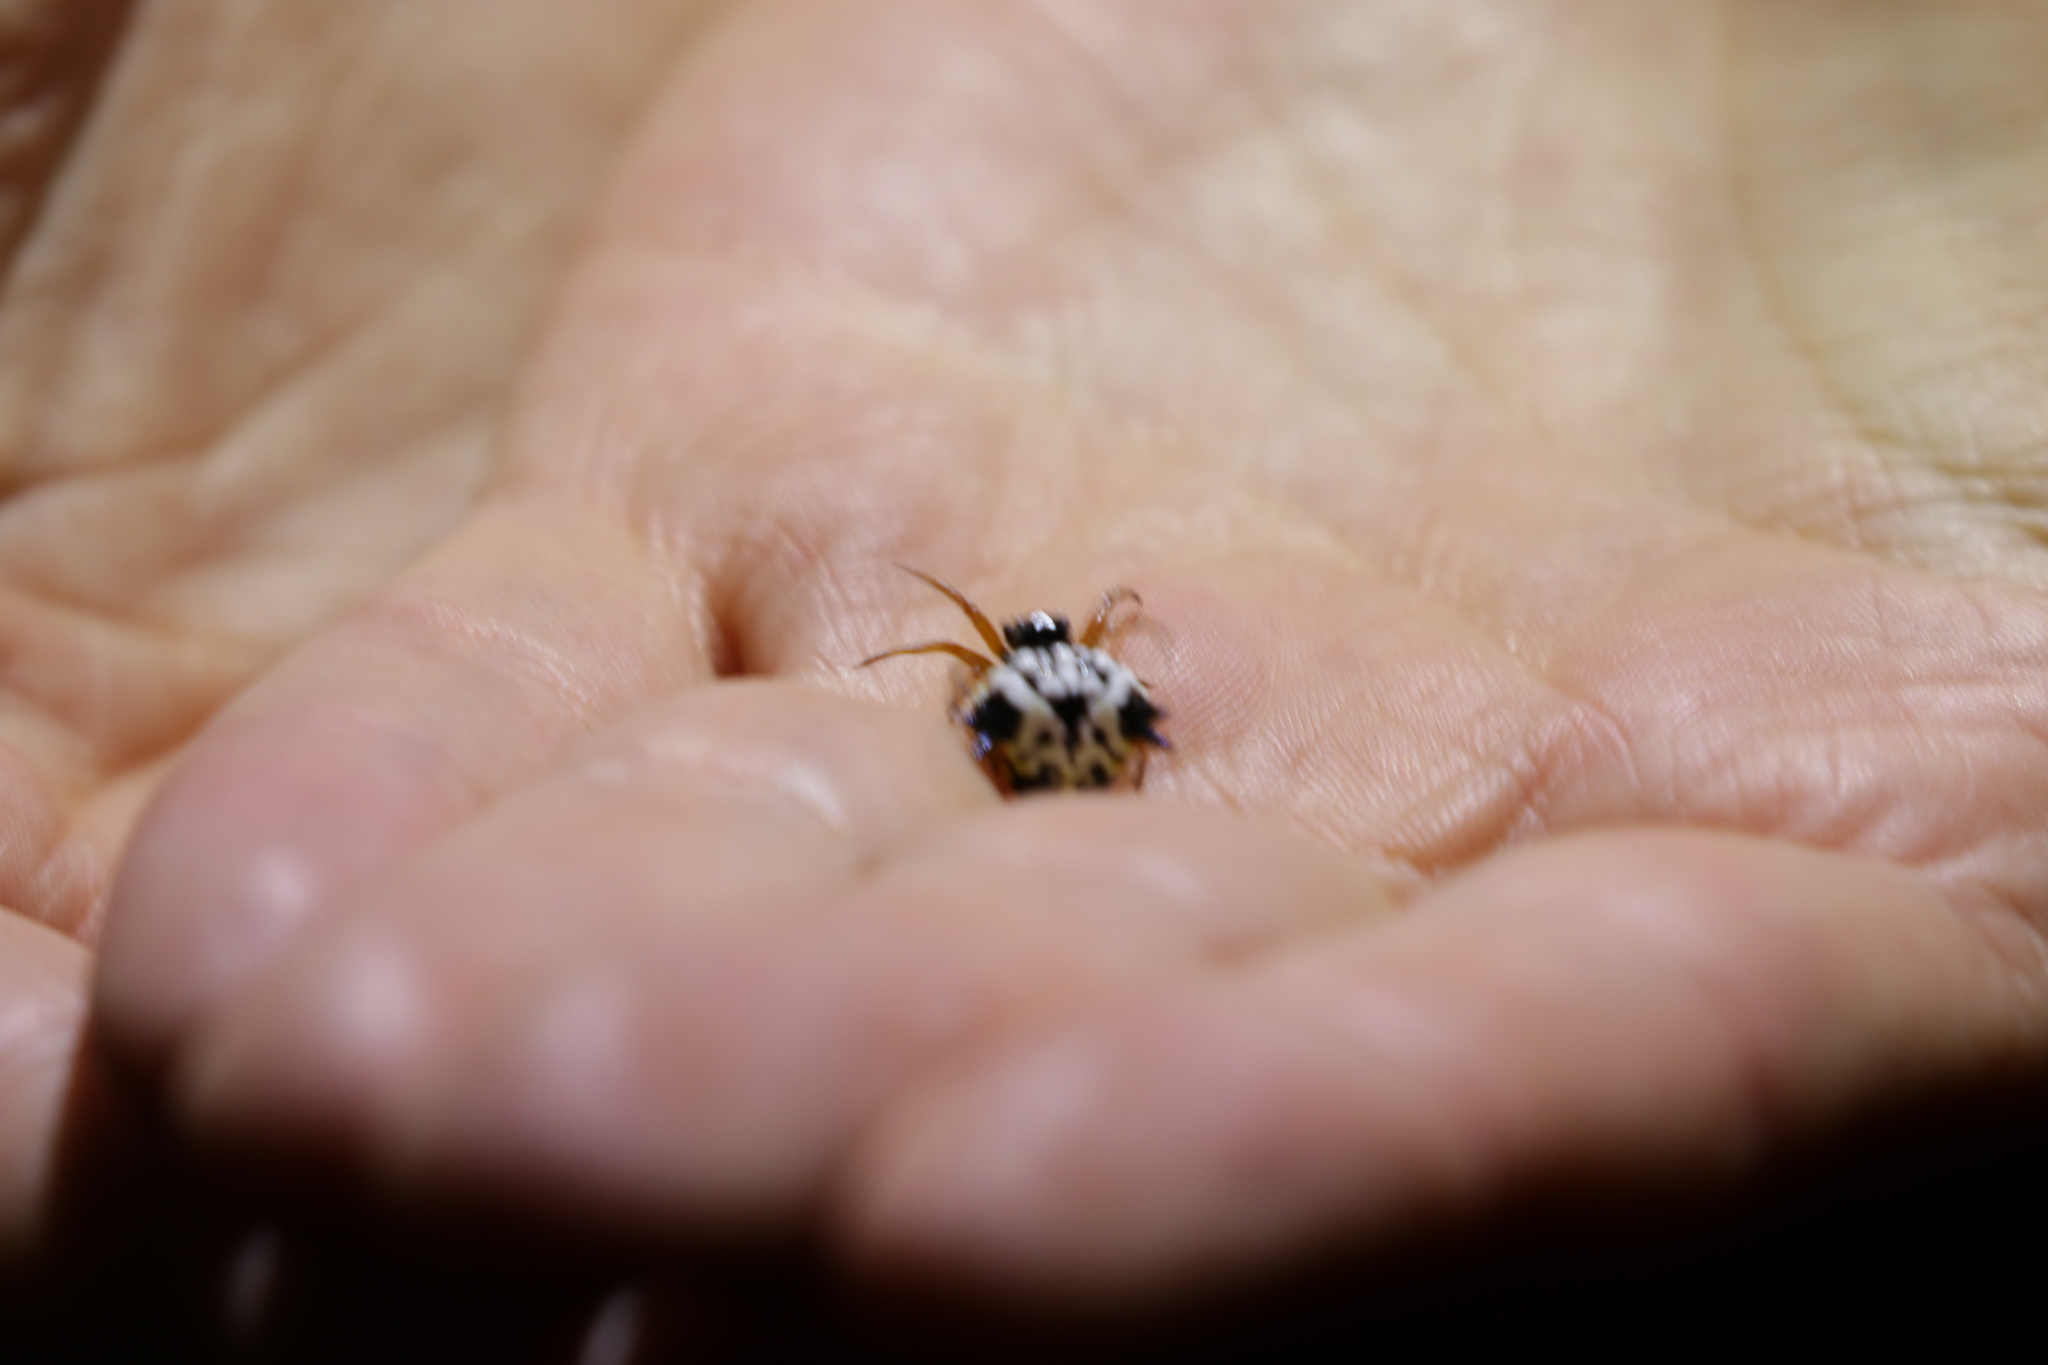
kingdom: Animalia
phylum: Arthropoda
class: Arachnida
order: Araneae
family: Araneidae
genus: Austracantha
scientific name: Austracantha minax
